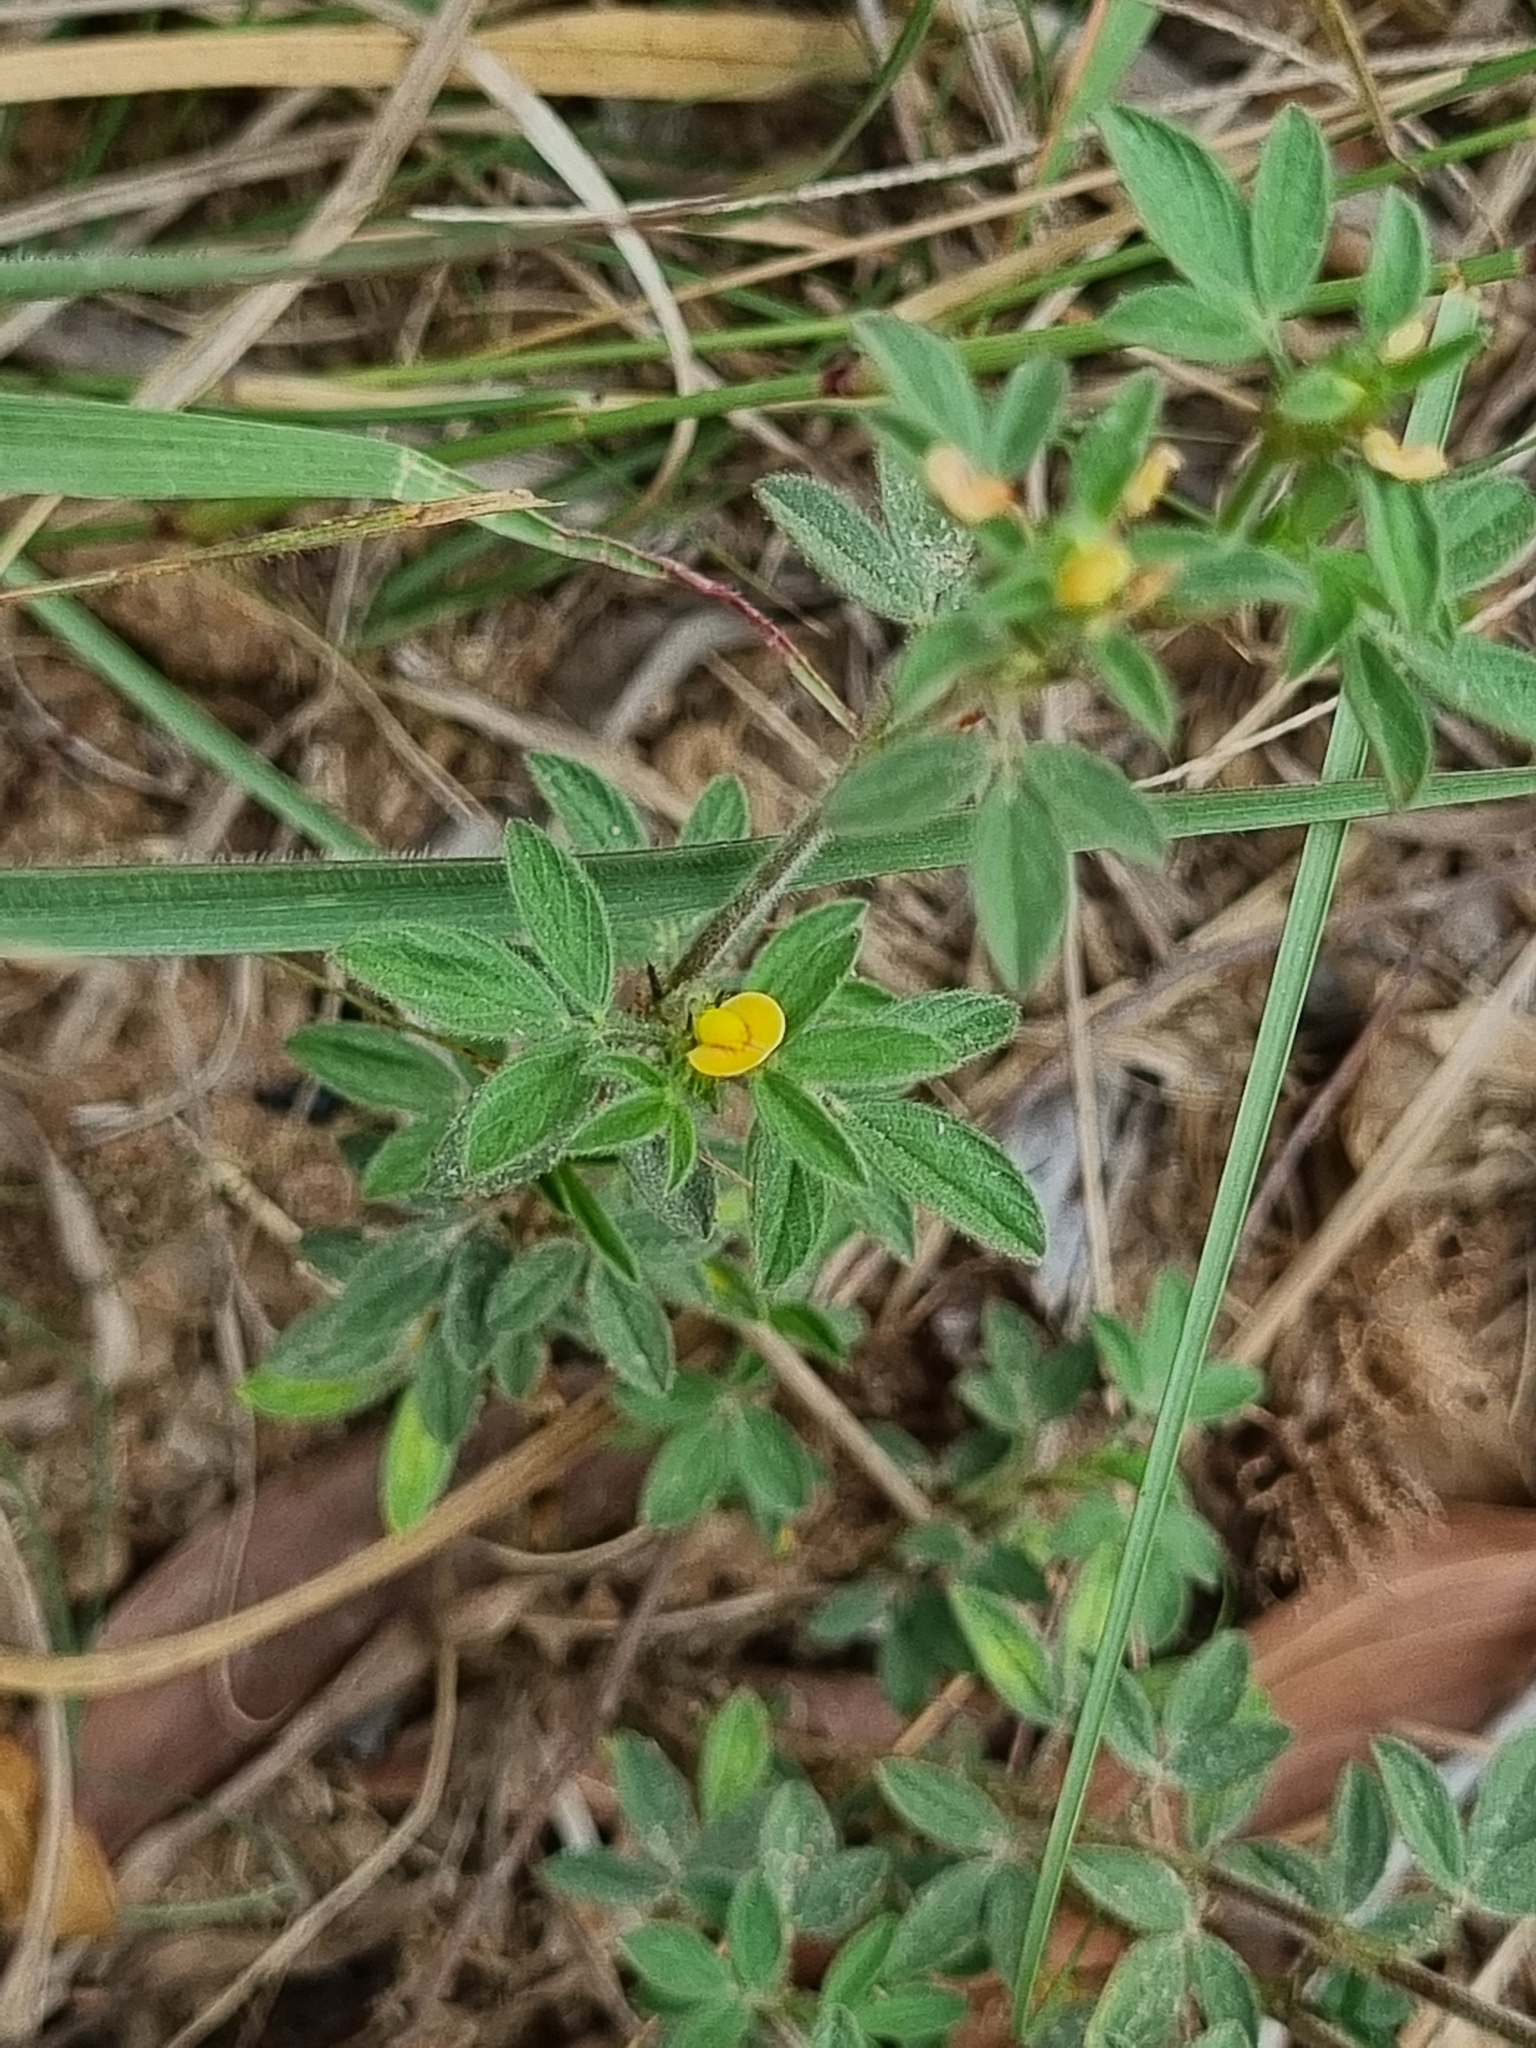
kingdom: Plantae
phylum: Tracheophyta
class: Magnoliopsida
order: Fabales
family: Fabaceae
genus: Stylosanthes
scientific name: Stylosanthes hamata
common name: Cheesytoes
